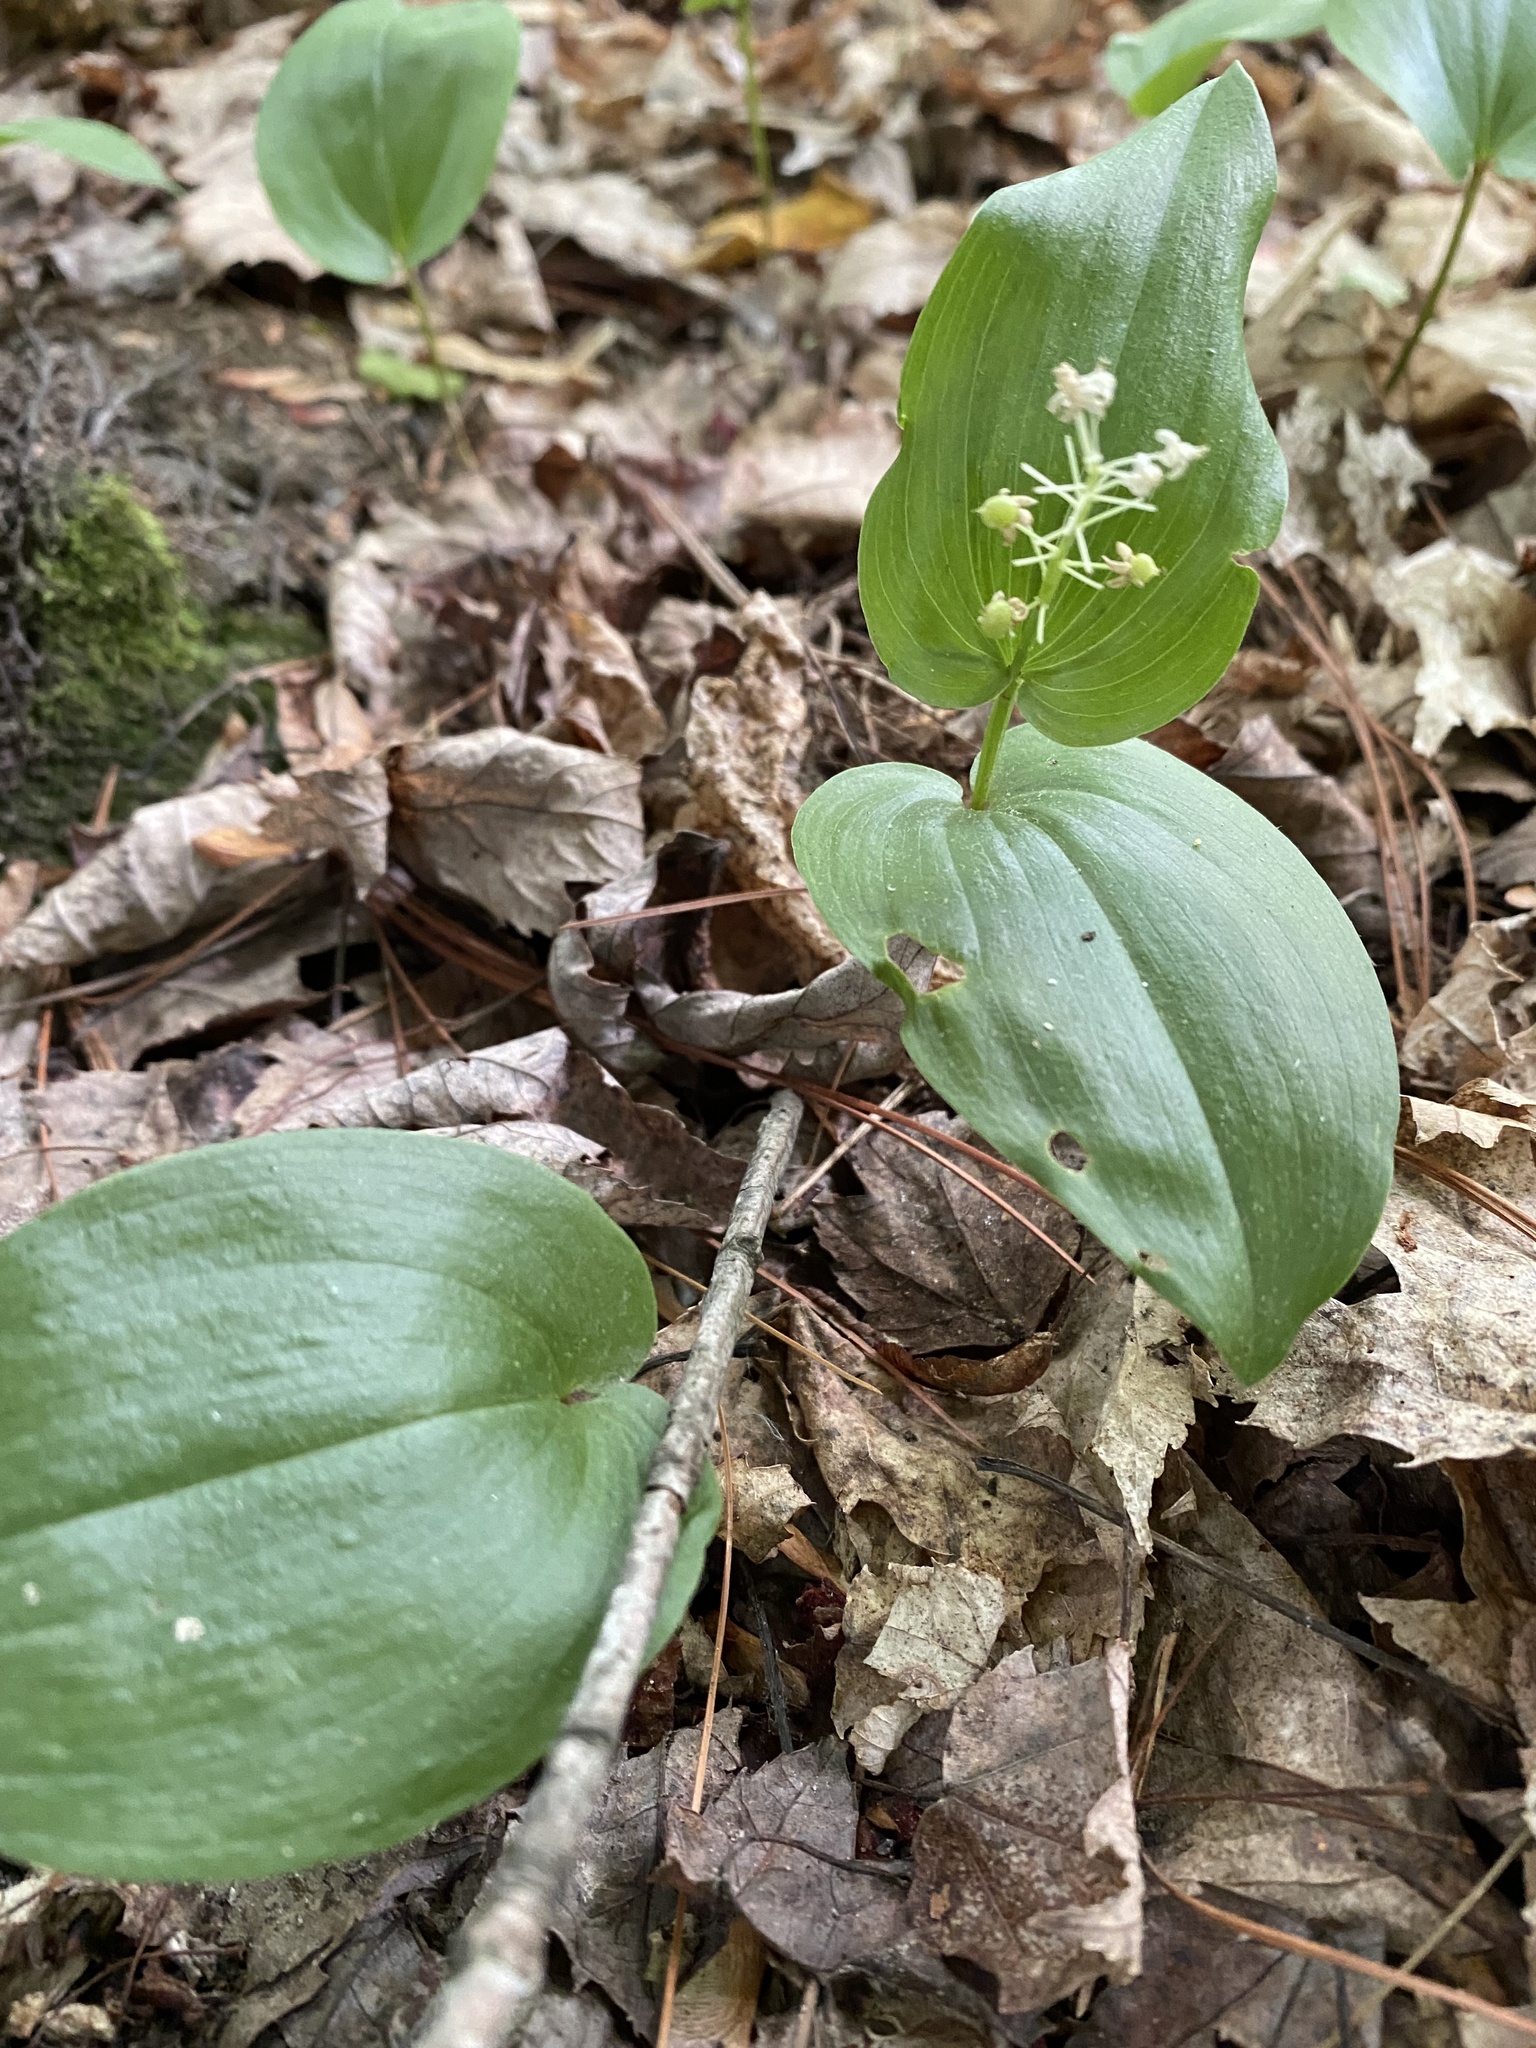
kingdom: Plantae
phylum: Tracheophyta
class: Liliopsida
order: Asparagales
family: Asparagaceae
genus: Maianthemum
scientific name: Maianthemum canadense
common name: False lily-of-the-valley
